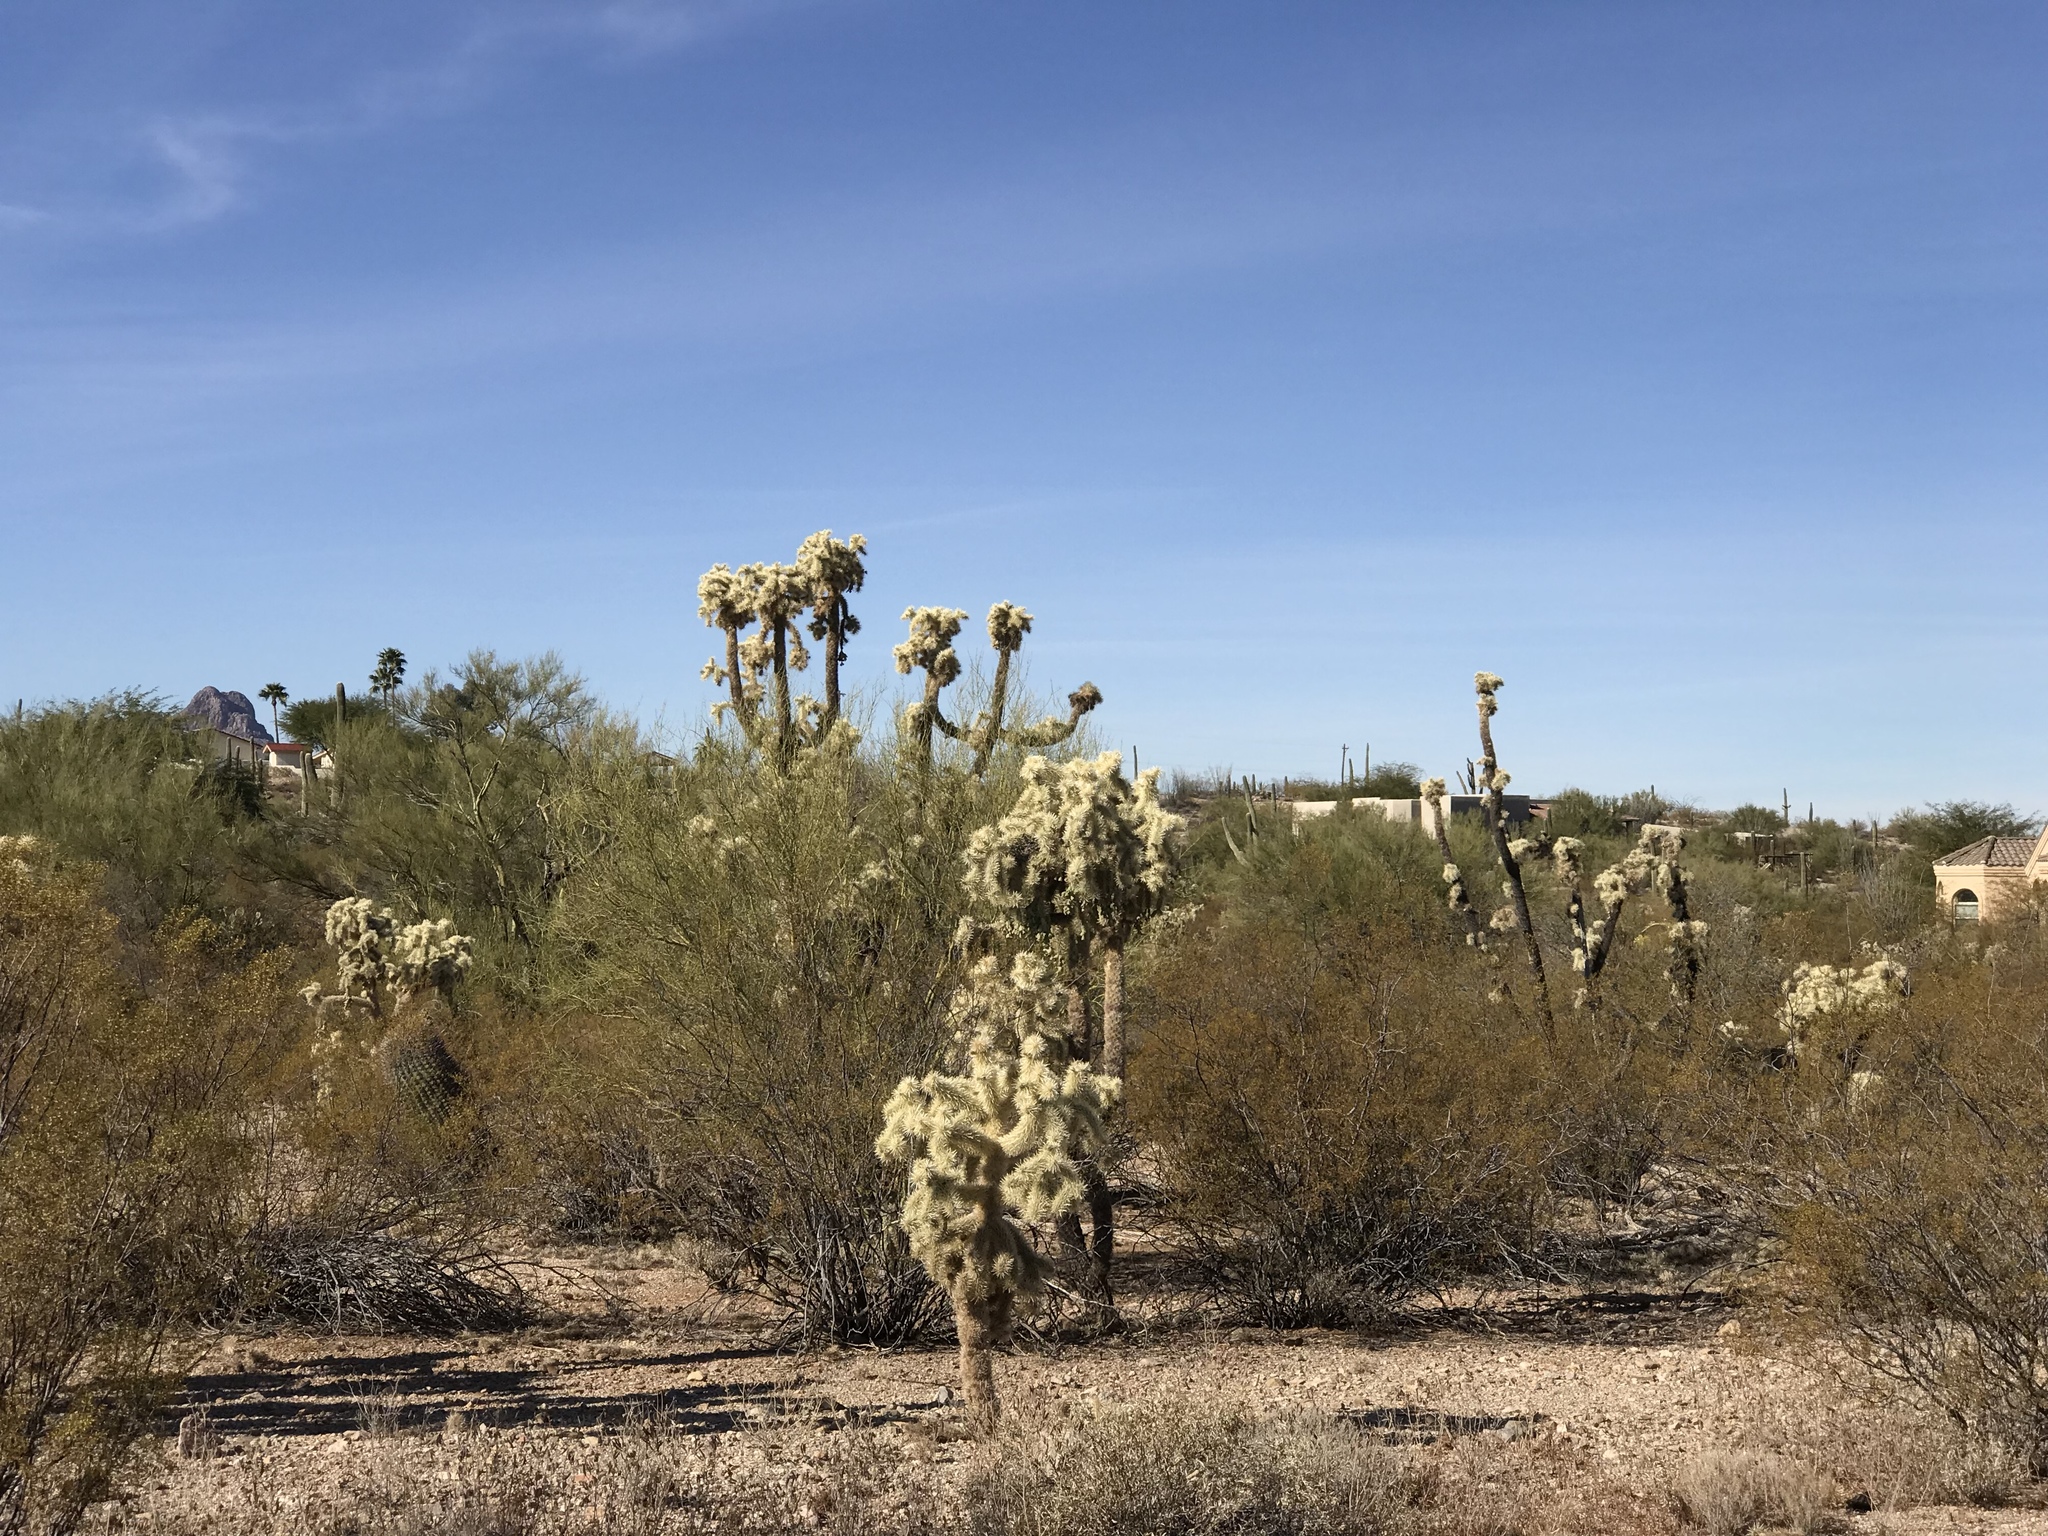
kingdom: Plantae
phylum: Tracheophyta
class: Magnoliopsida
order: Caryophyllales
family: Cactaceae
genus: Cylindropuntia
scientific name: Cylindropuntia fulgida
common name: Jumping cholla
